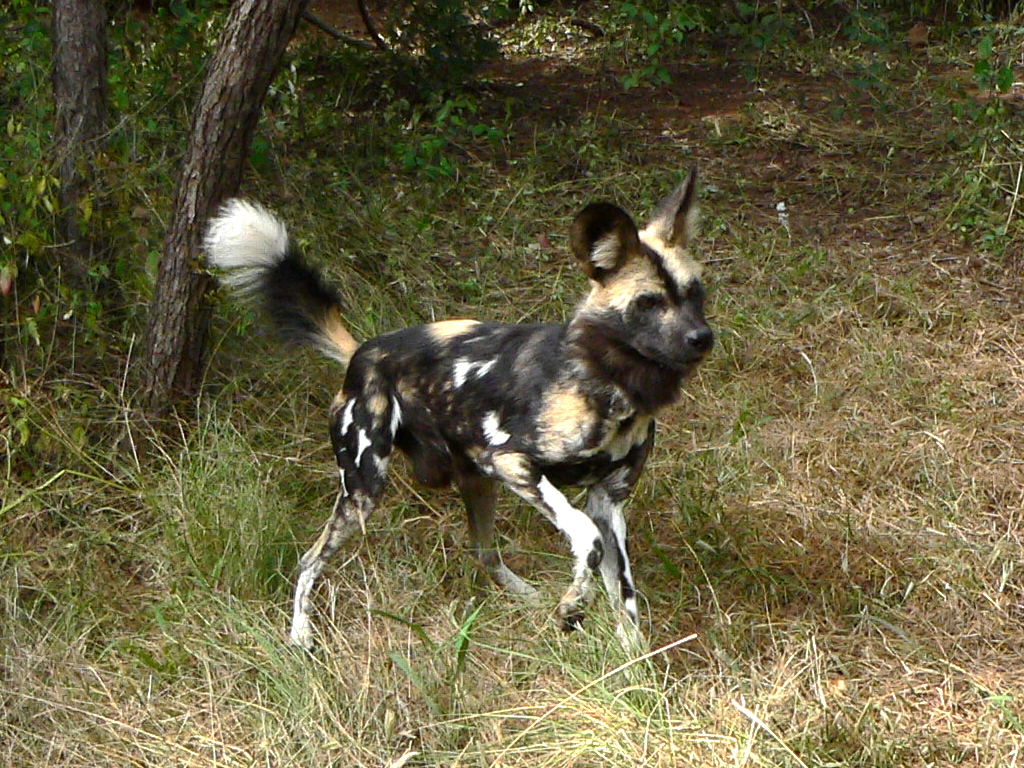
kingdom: Animalia
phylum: Chordata
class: Mammalia
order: Carnivora
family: Canidae
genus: Lycaon
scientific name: Lycaon pictus
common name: African wild dog
